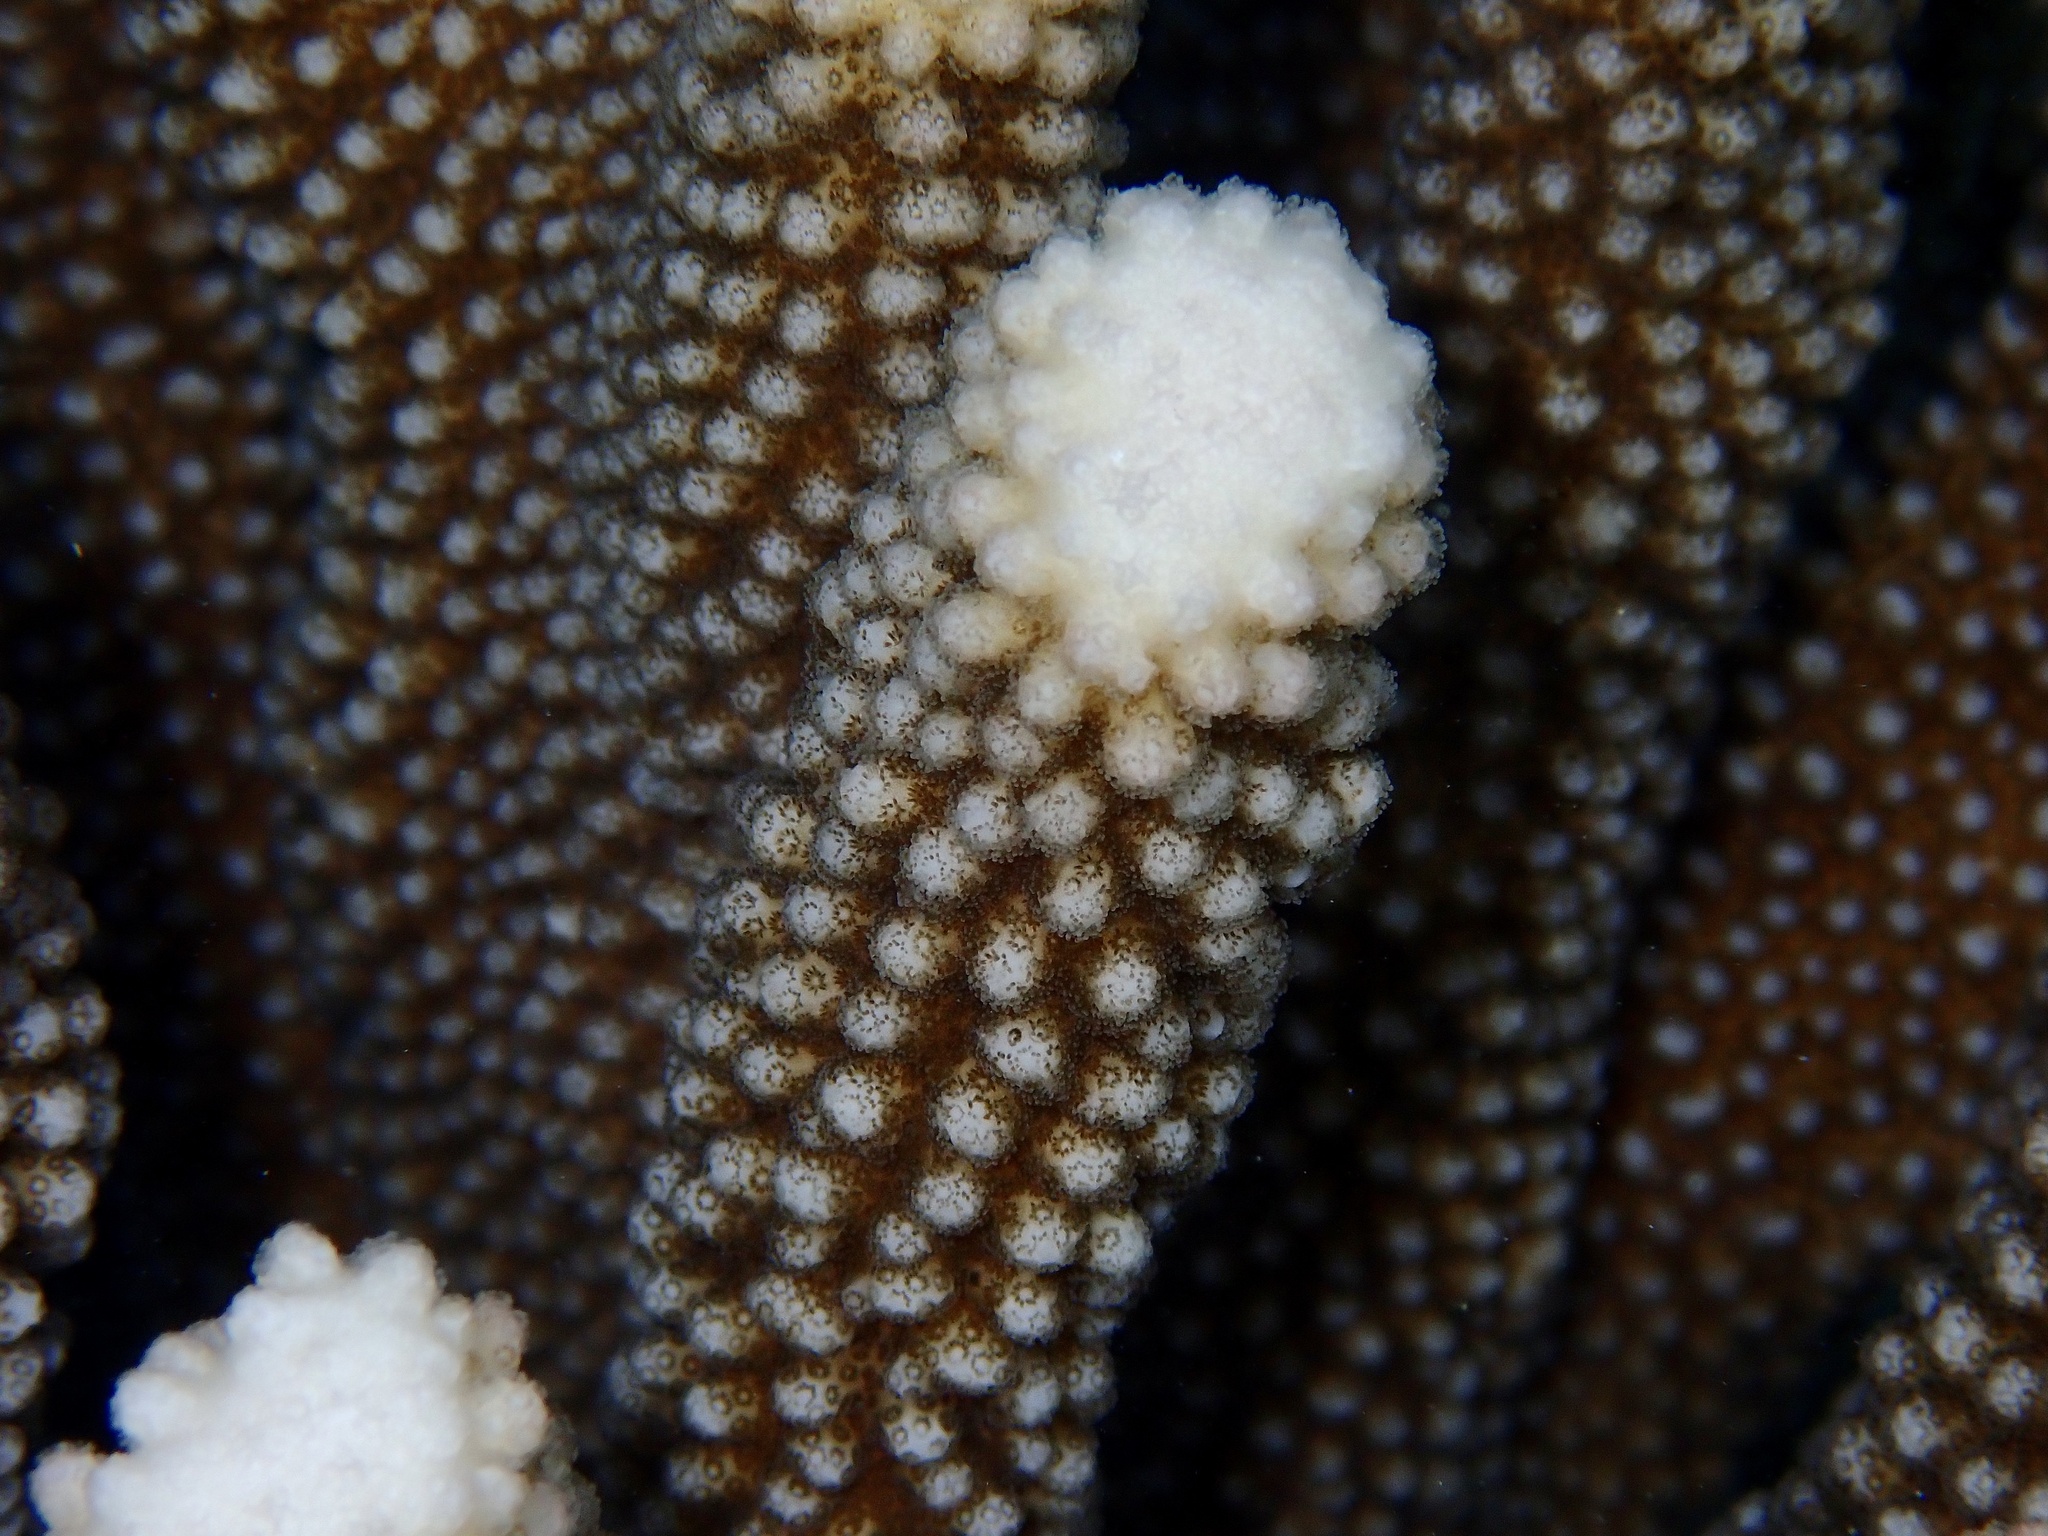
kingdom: Animalia
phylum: Cnidaria
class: Anthozoa
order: Scleractinia
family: Pocilloporidae
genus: Pocillopora
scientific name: Pocillopora grandis
